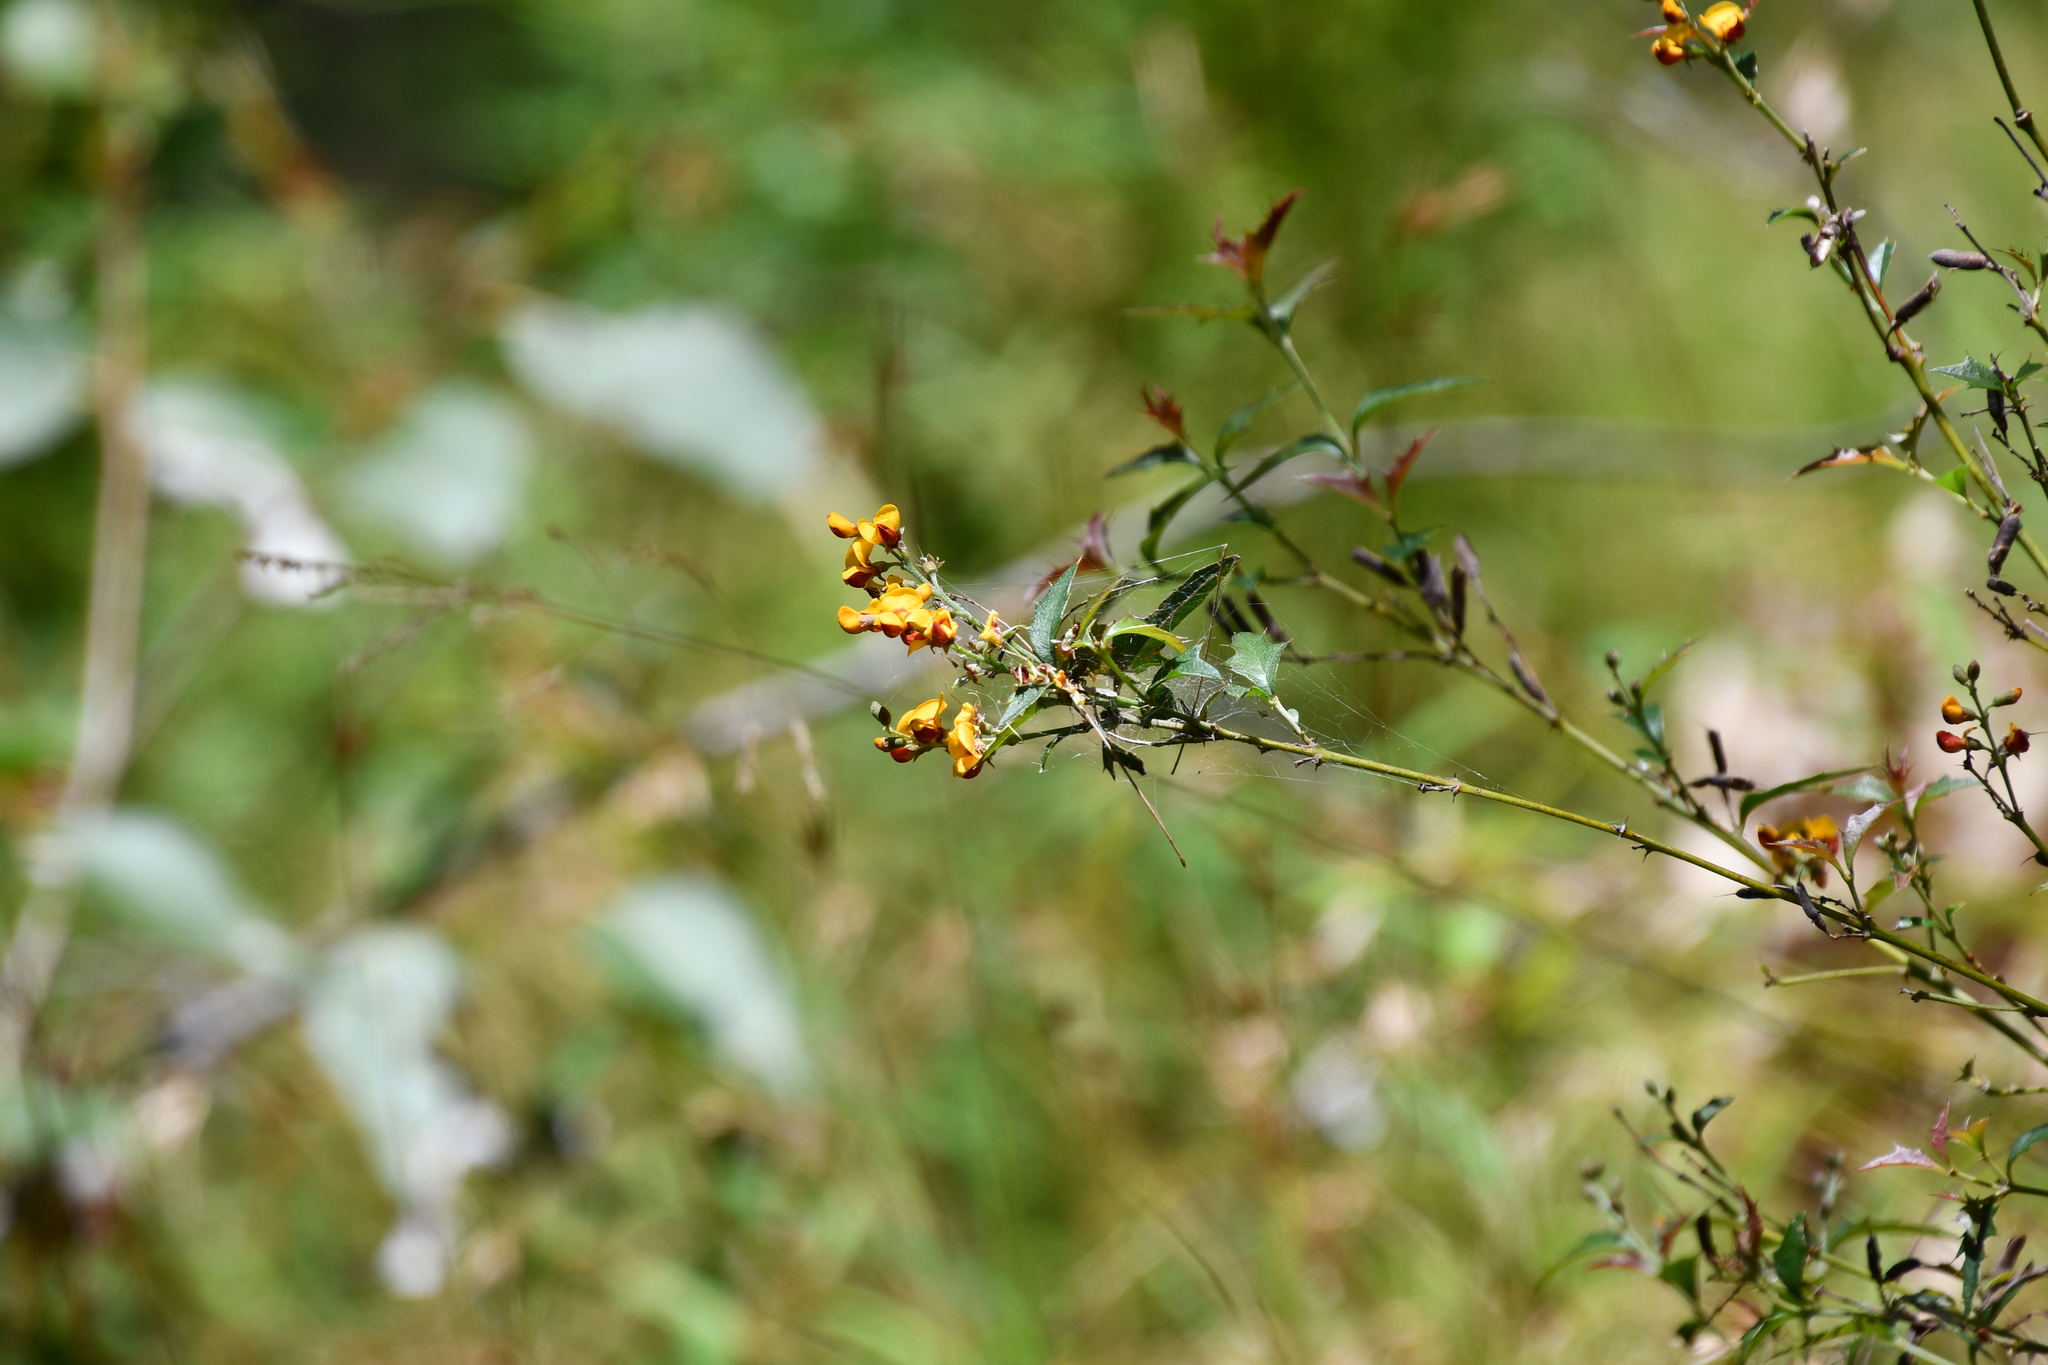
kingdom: Plantae
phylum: Tracheophyta
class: Magnoliopsida
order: Fabales
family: Fabaceae
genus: Podolobium
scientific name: Podolobium ilicifolium
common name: Native holly
